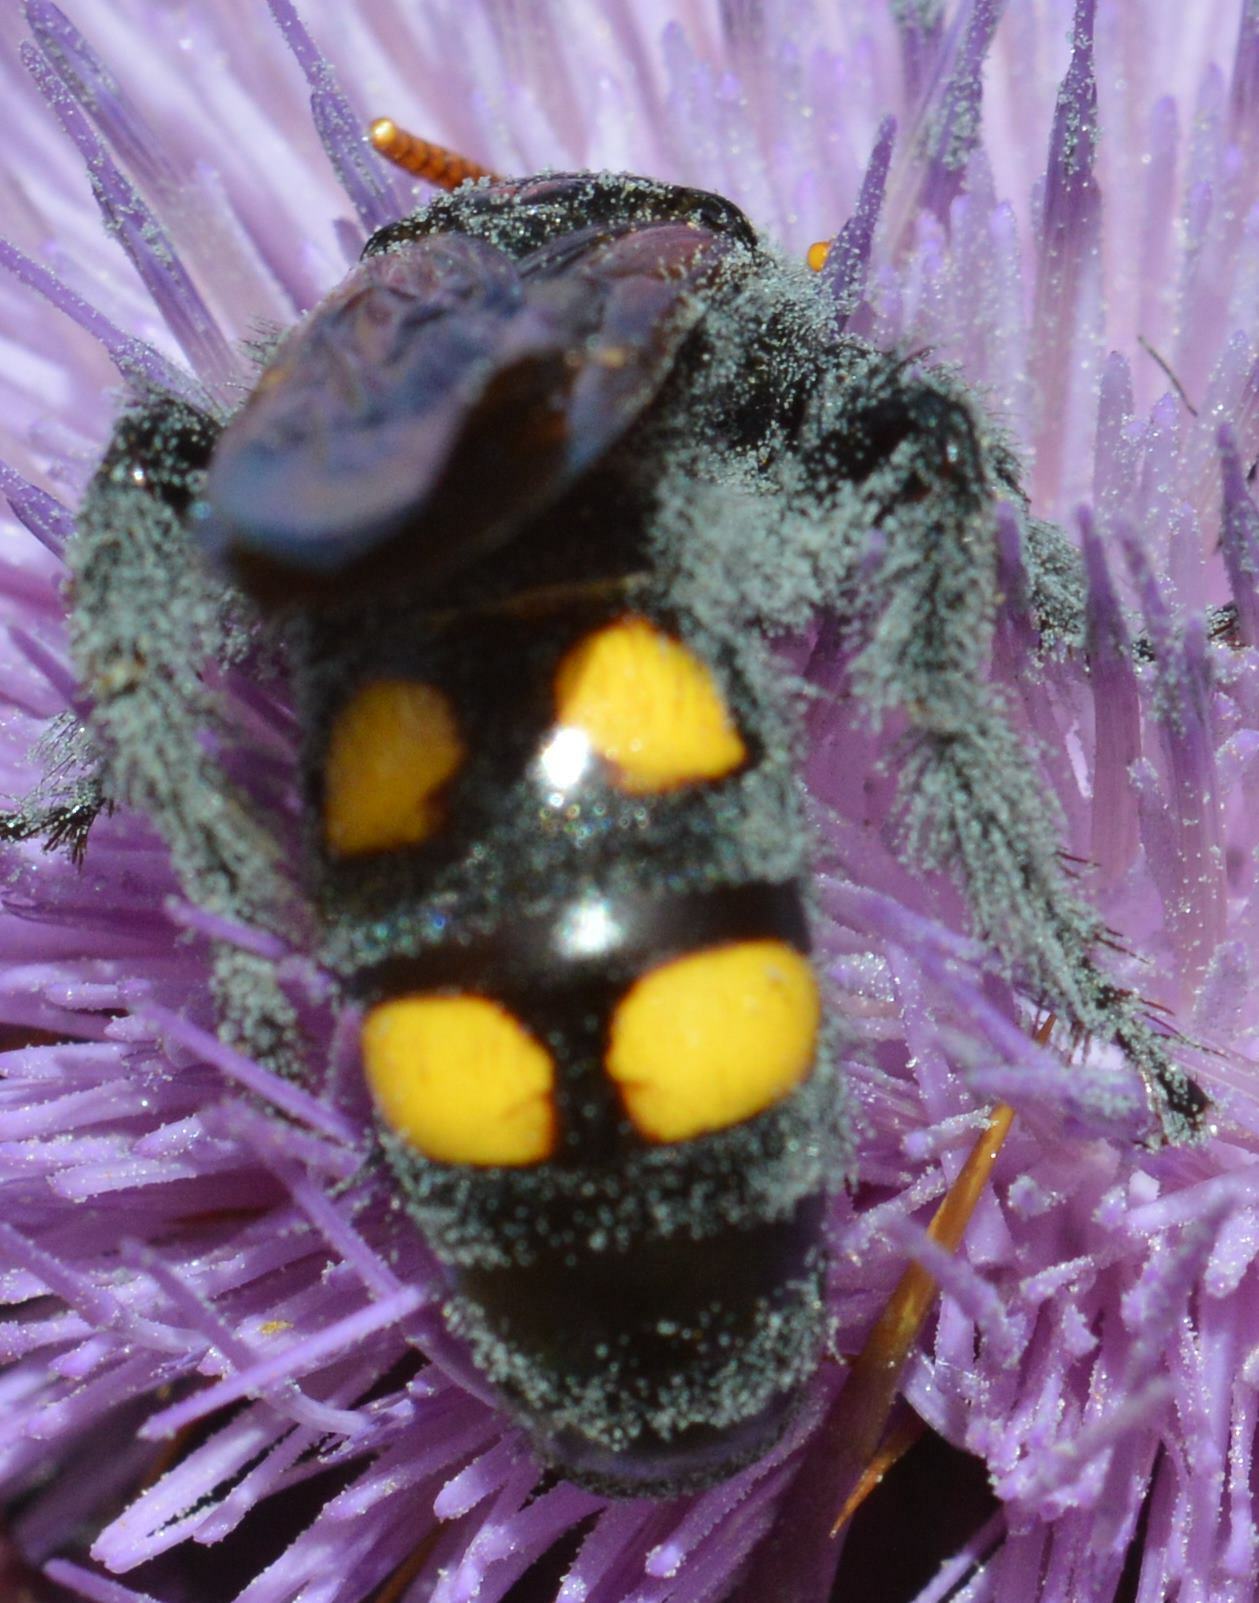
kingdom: Animalia
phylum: Arthropoda
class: Insecta
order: Hymenoptera
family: Scoliidae
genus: Megascolia
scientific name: Megascolia bidens
